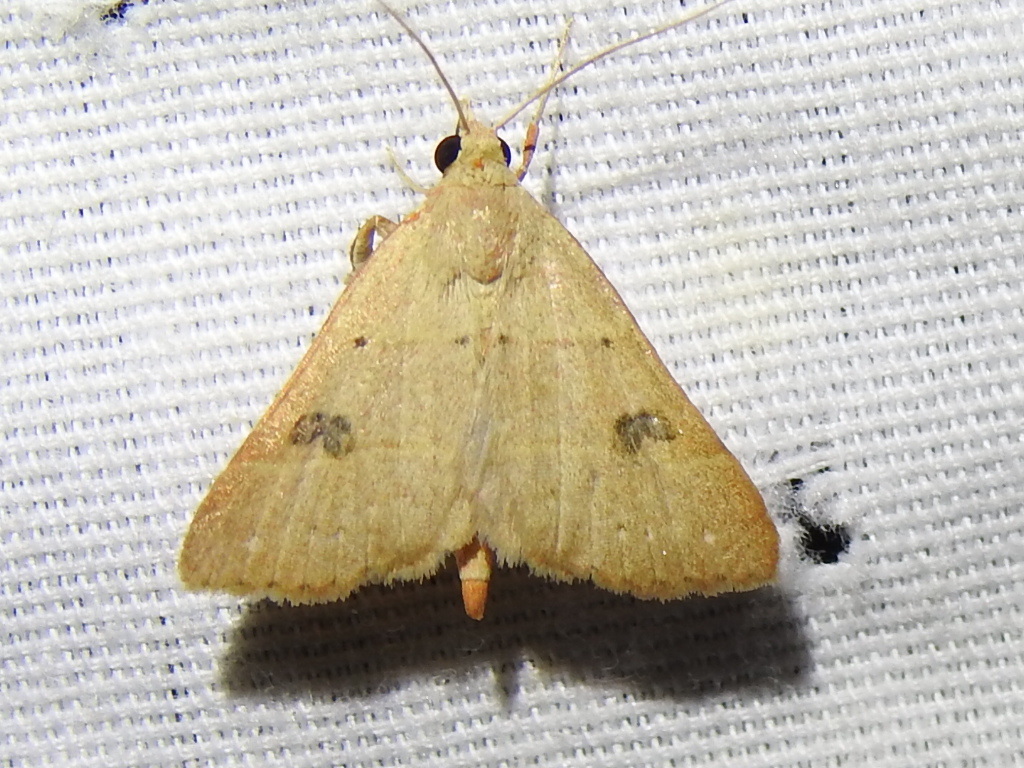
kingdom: Animalia
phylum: Arthropoda
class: Insecta
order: Lepidoptera
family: Erebidae
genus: Hemeroplanis
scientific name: Hemeroplanis habitalis
